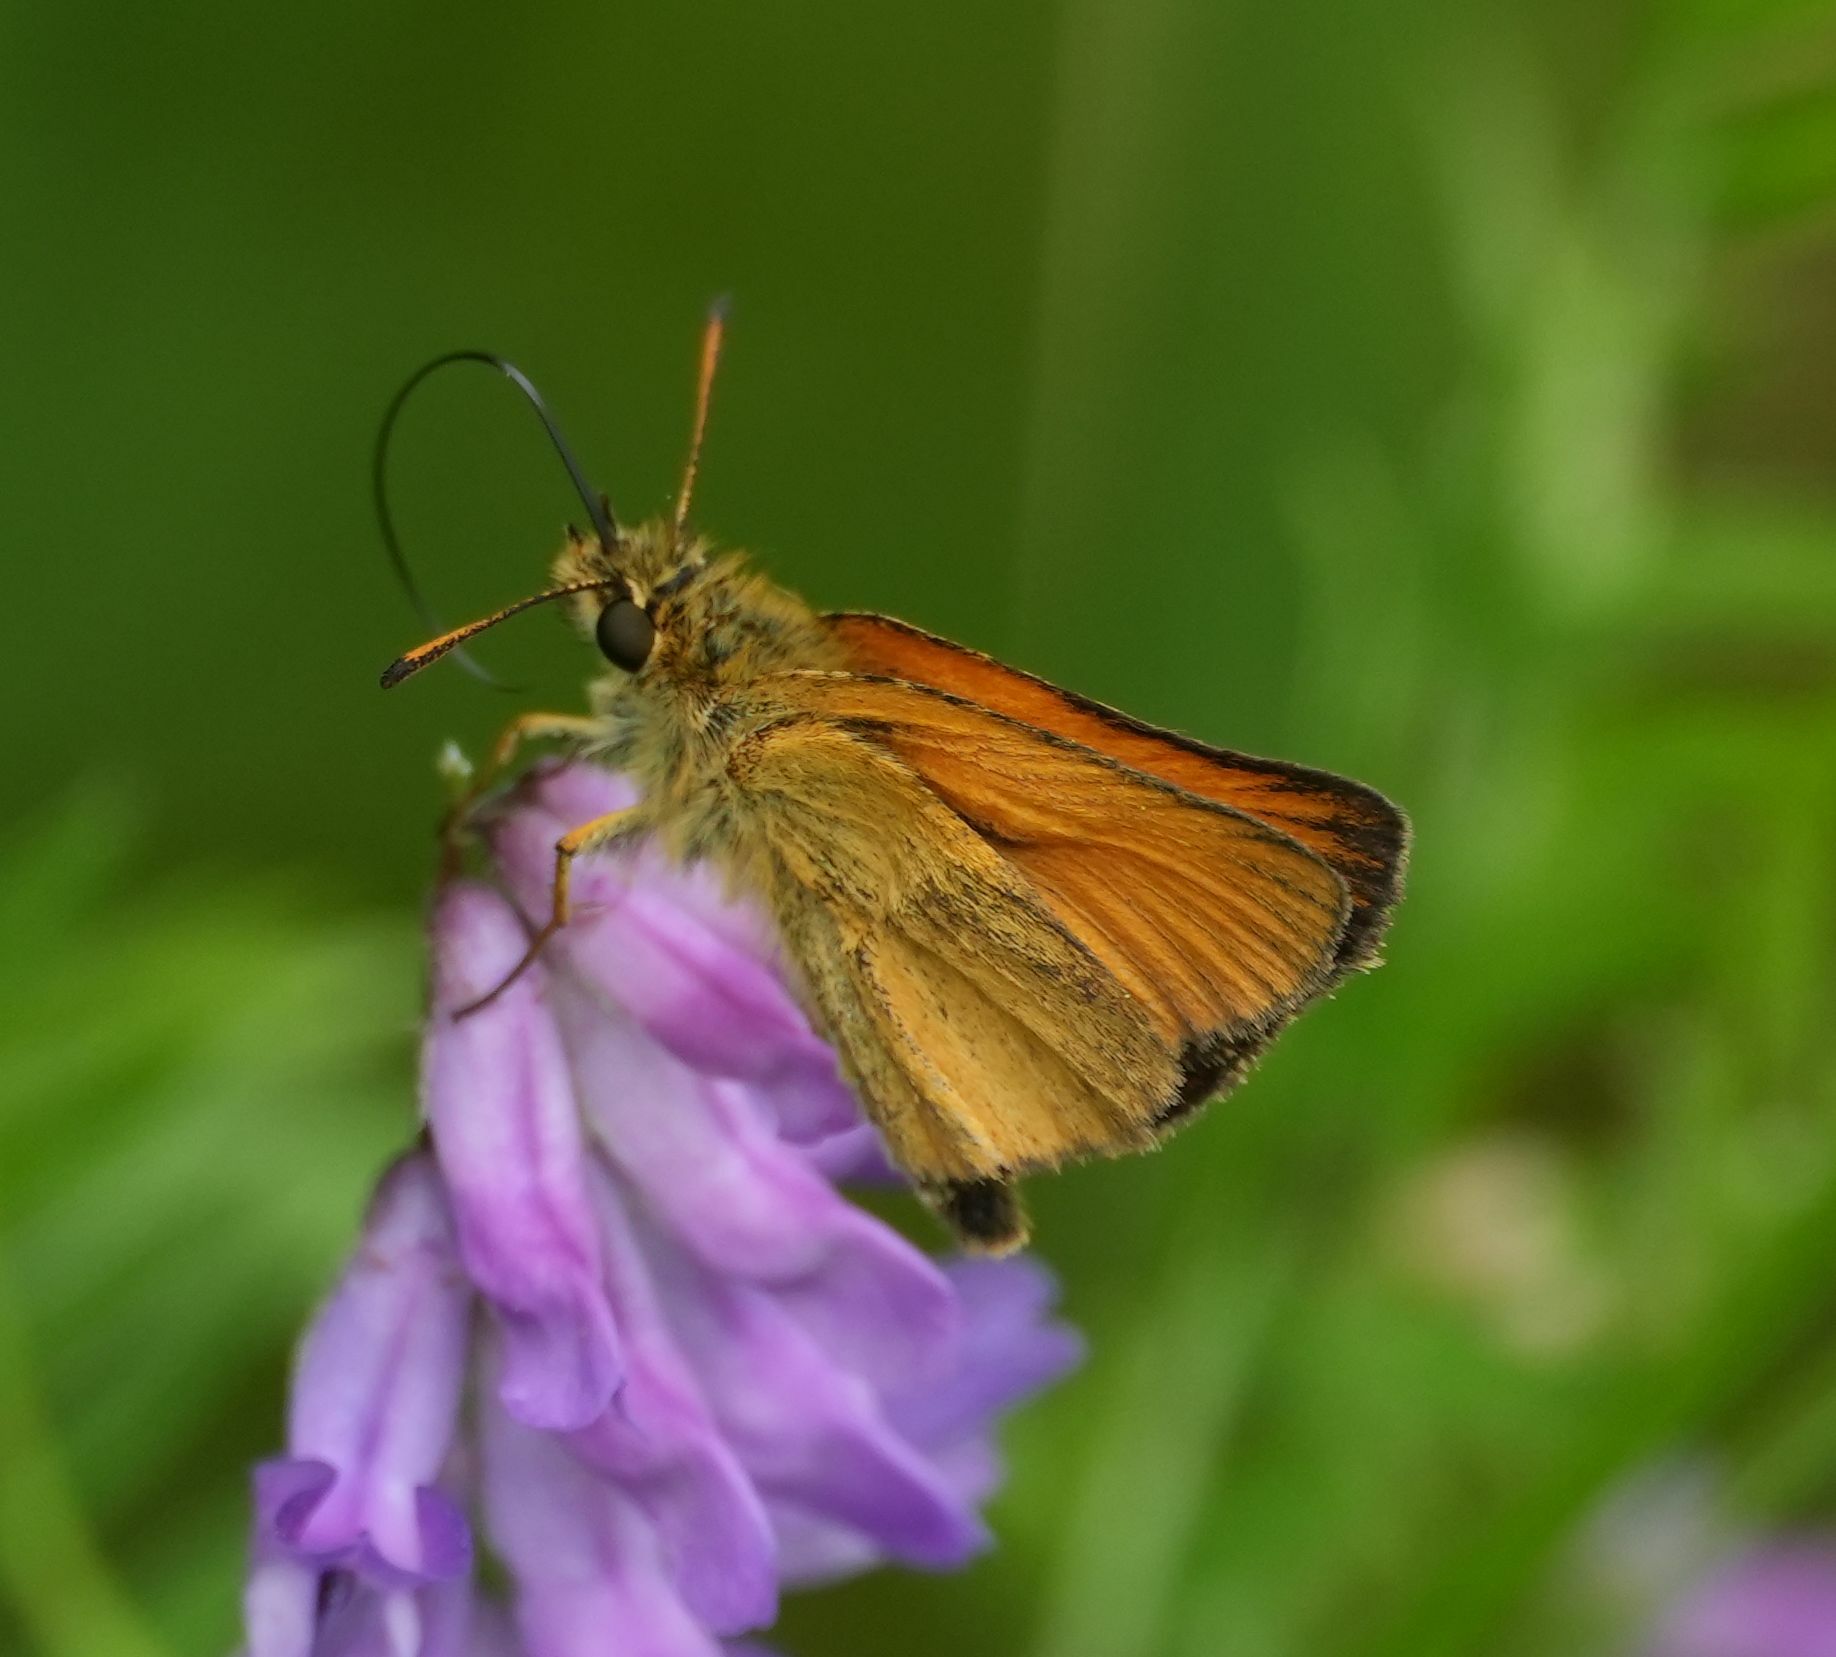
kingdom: Animalia
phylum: Arthropoda
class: Insecta
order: Lepidoptera
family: Hesperiidae
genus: Thymelicus
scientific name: Thymelicus lineola
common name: Essex skipper
